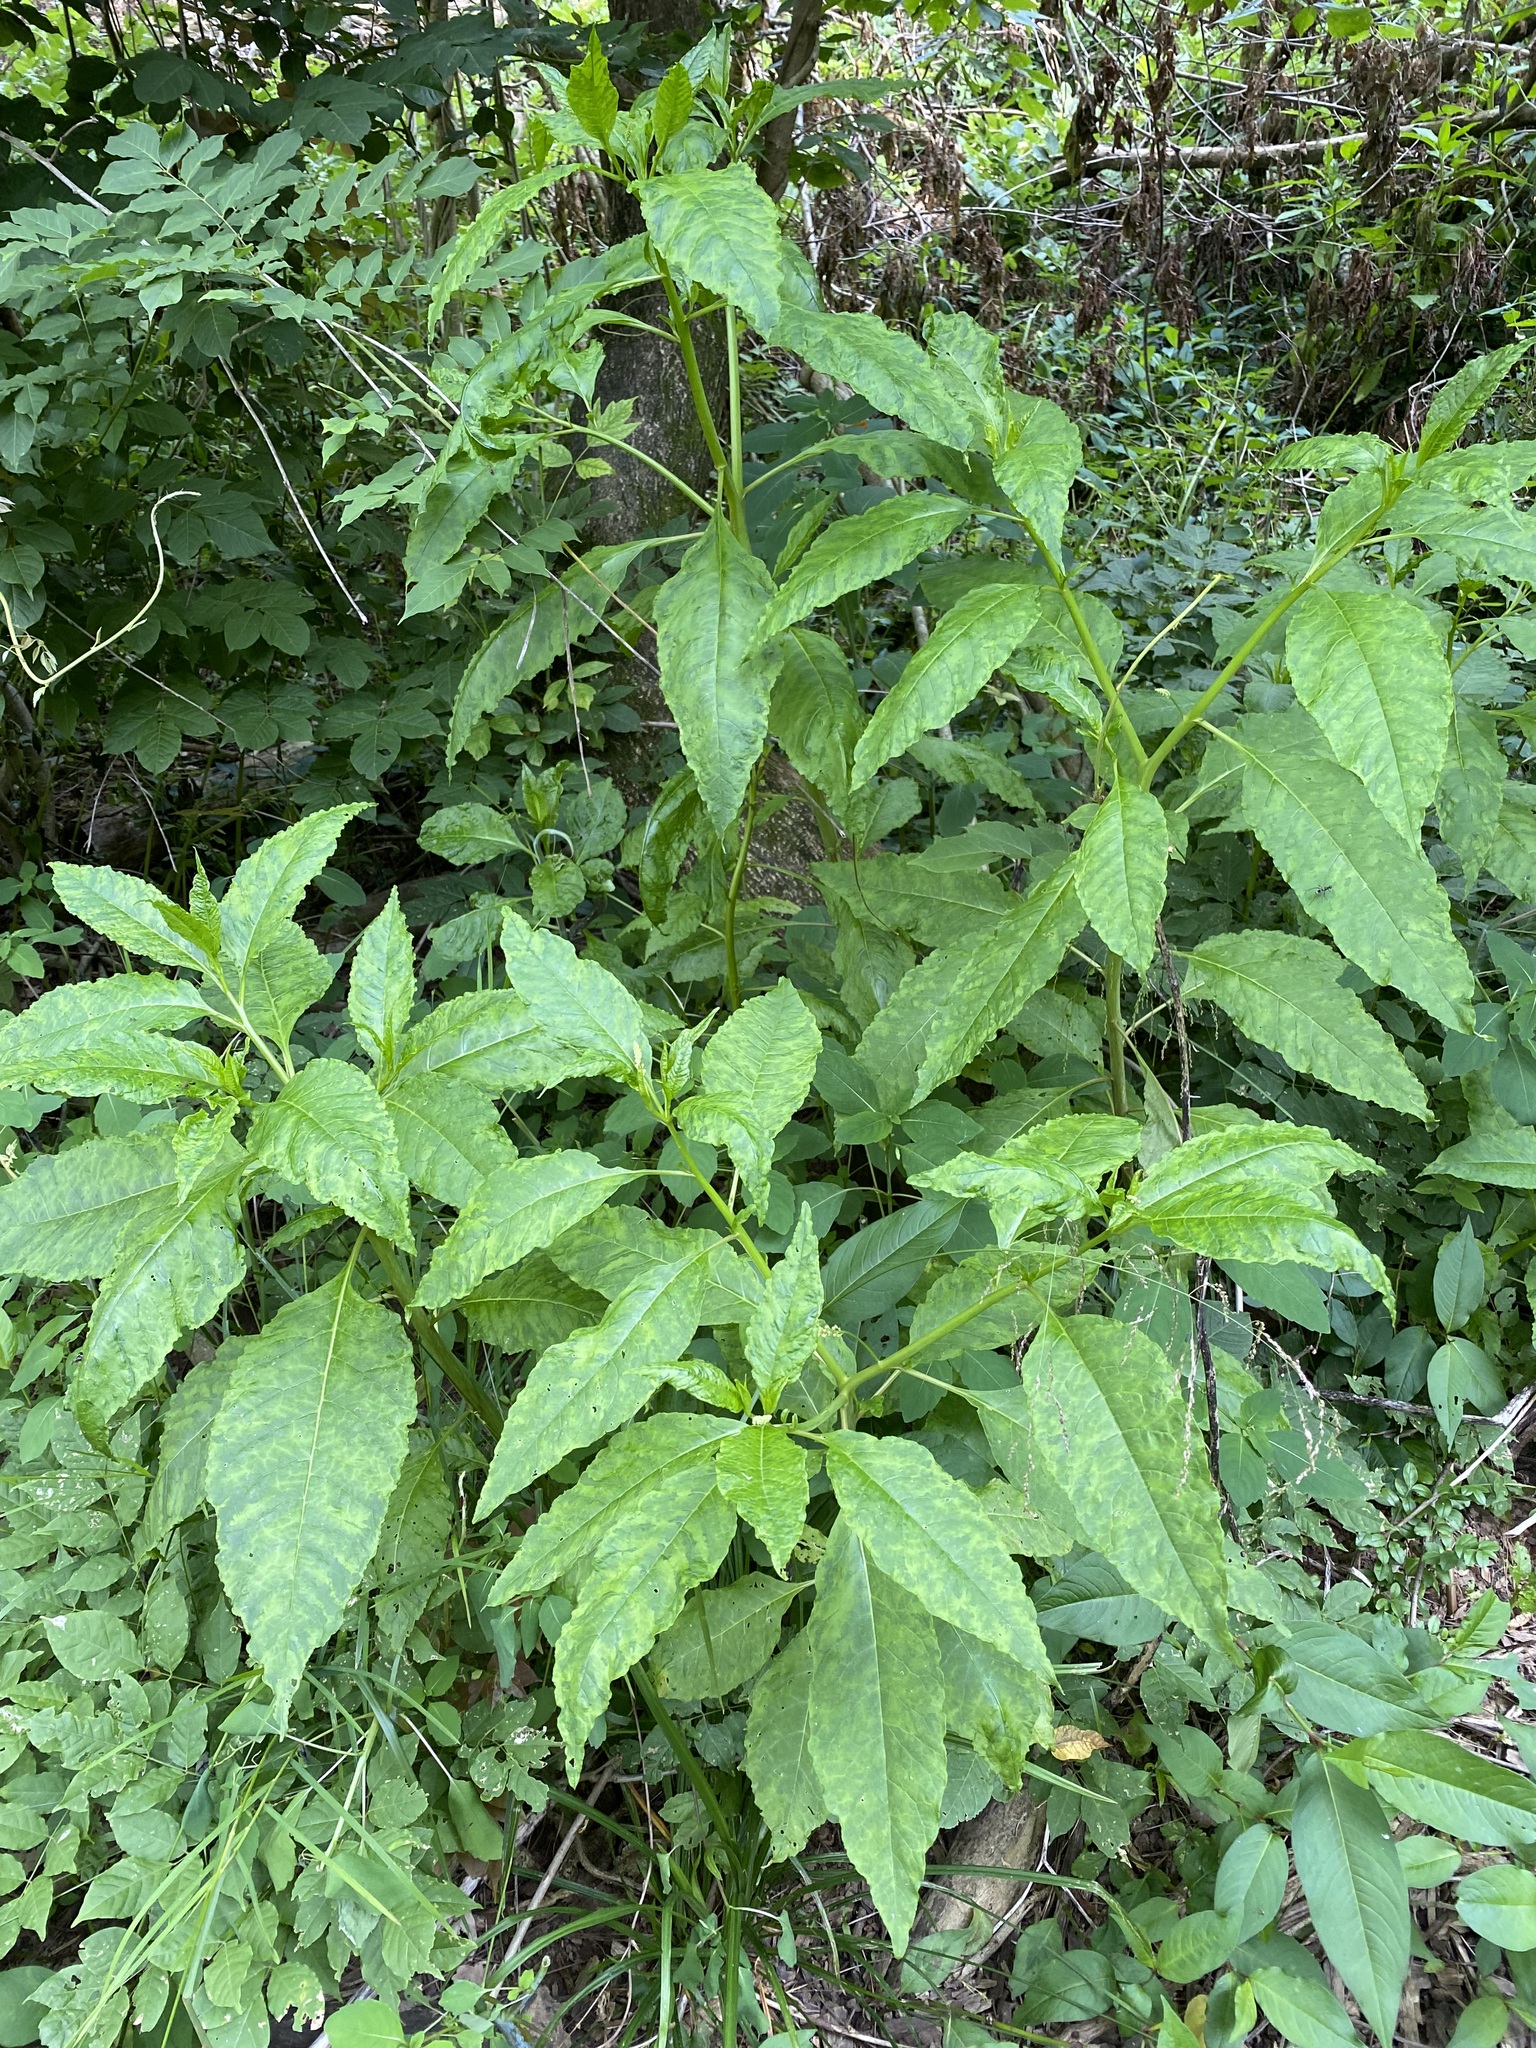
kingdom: Plantae
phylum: Tracheophyta
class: Magnoliopsida
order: Caryophyllales
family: Phytolaccaceae
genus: Phytolacca
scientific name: Phytolacca americana
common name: American pokeweed
